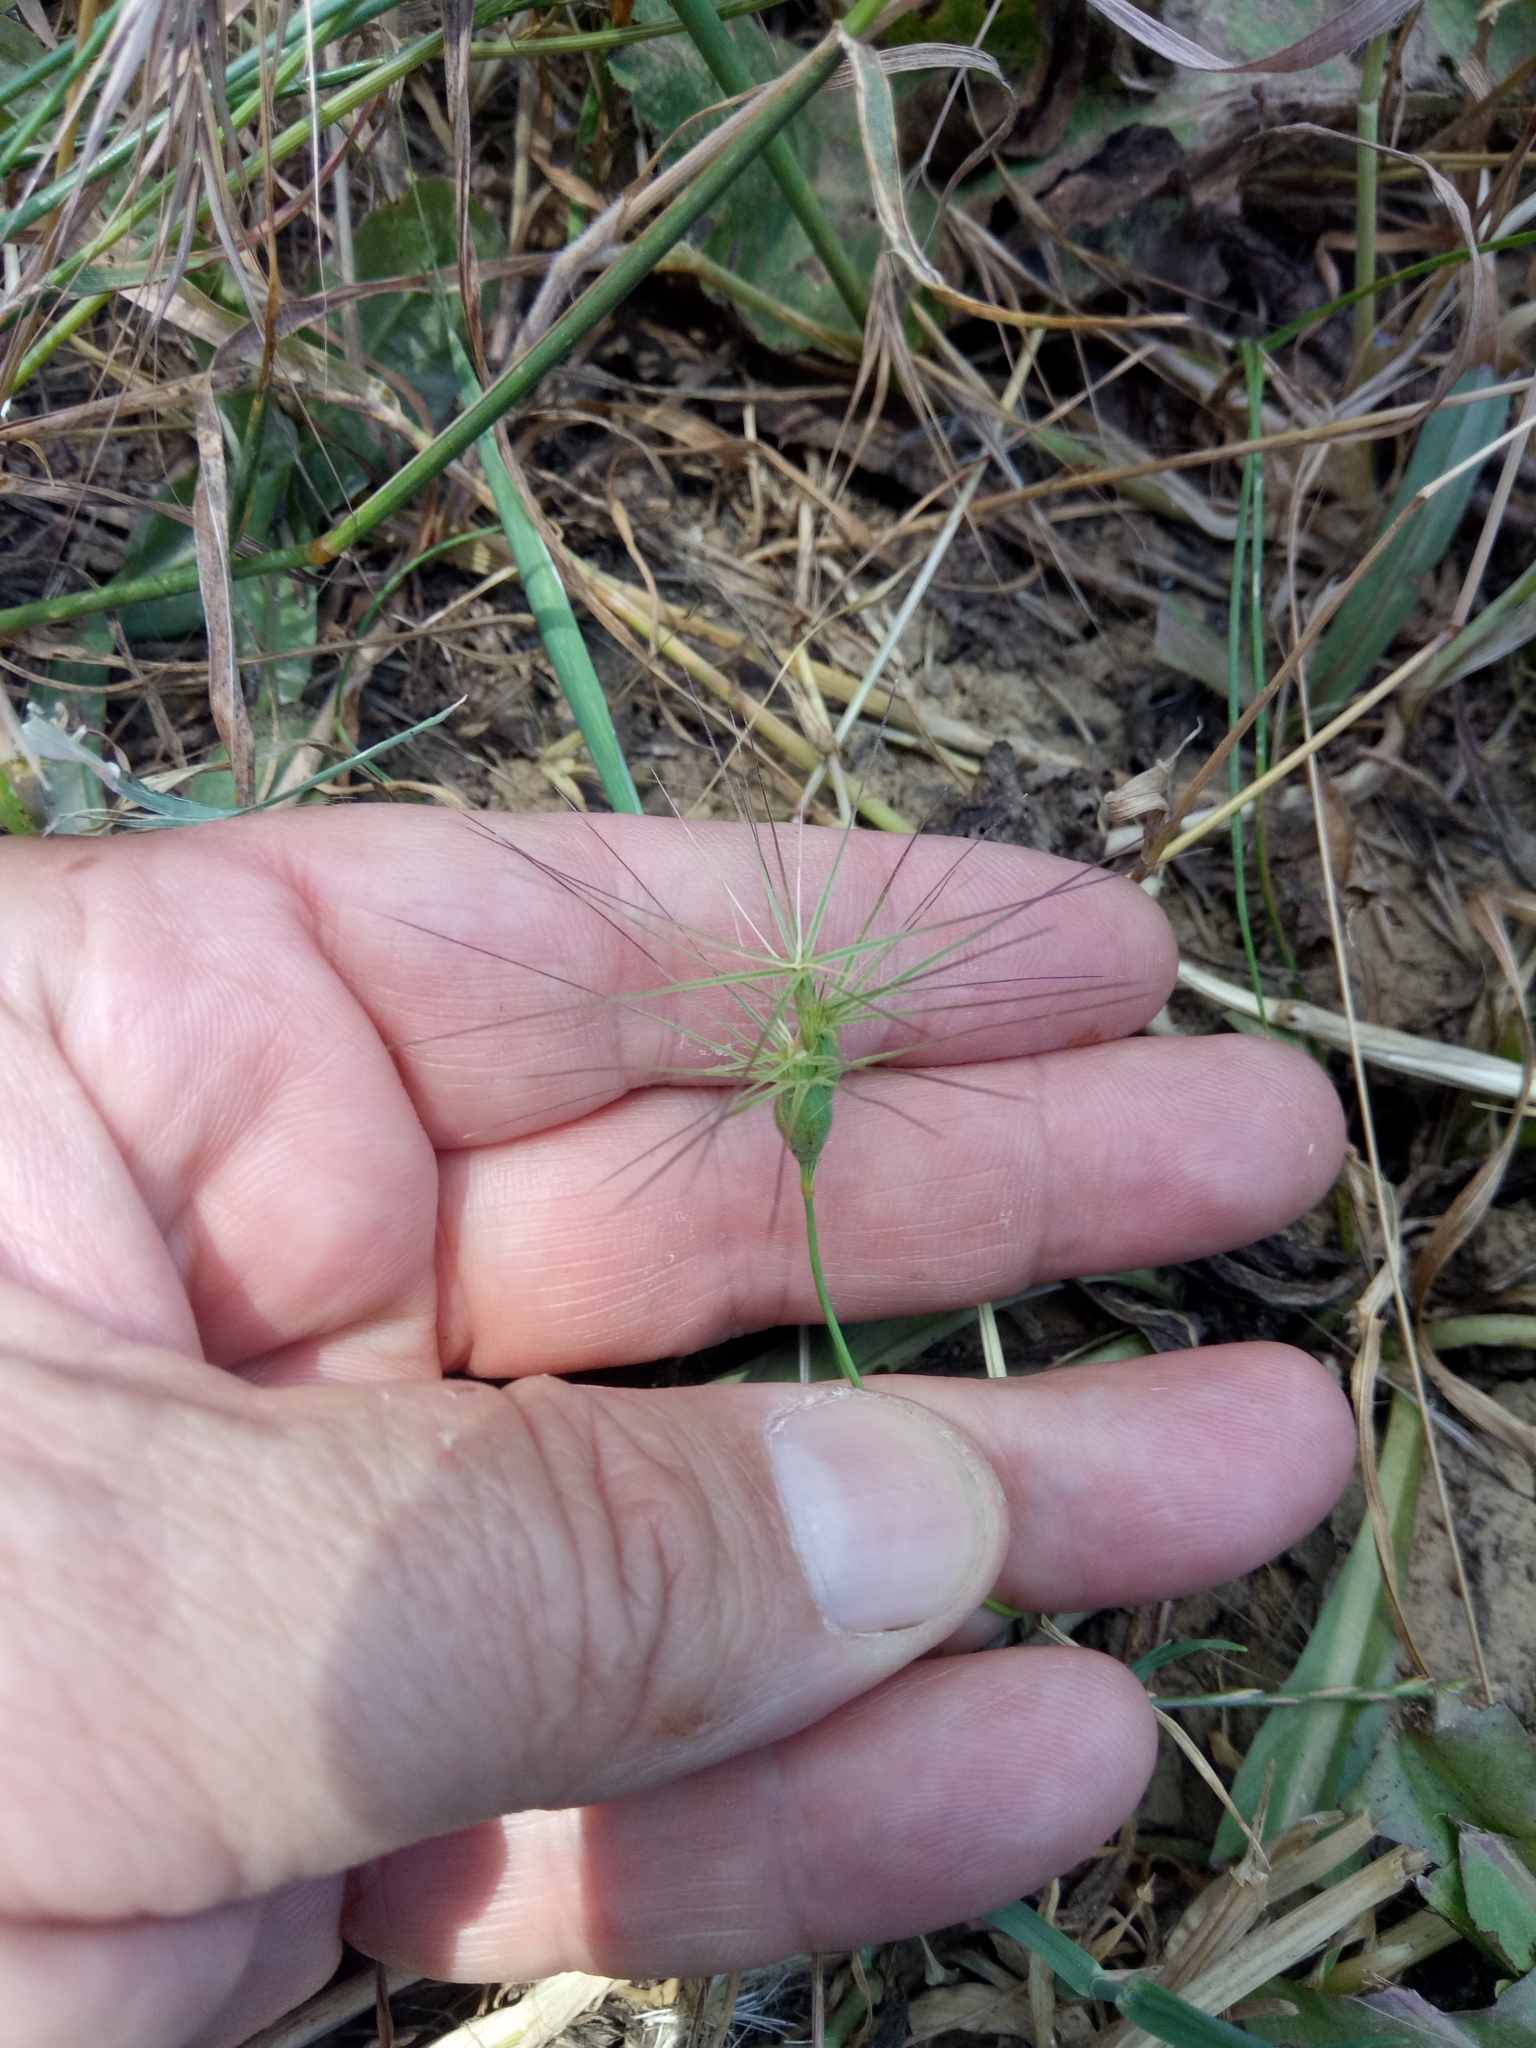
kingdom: Plantae
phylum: Tracheophyta
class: Liliopsida
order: Poales
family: Poaceae
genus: Aegilops
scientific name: Aegilops geniculata
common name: Ovate goat grass
